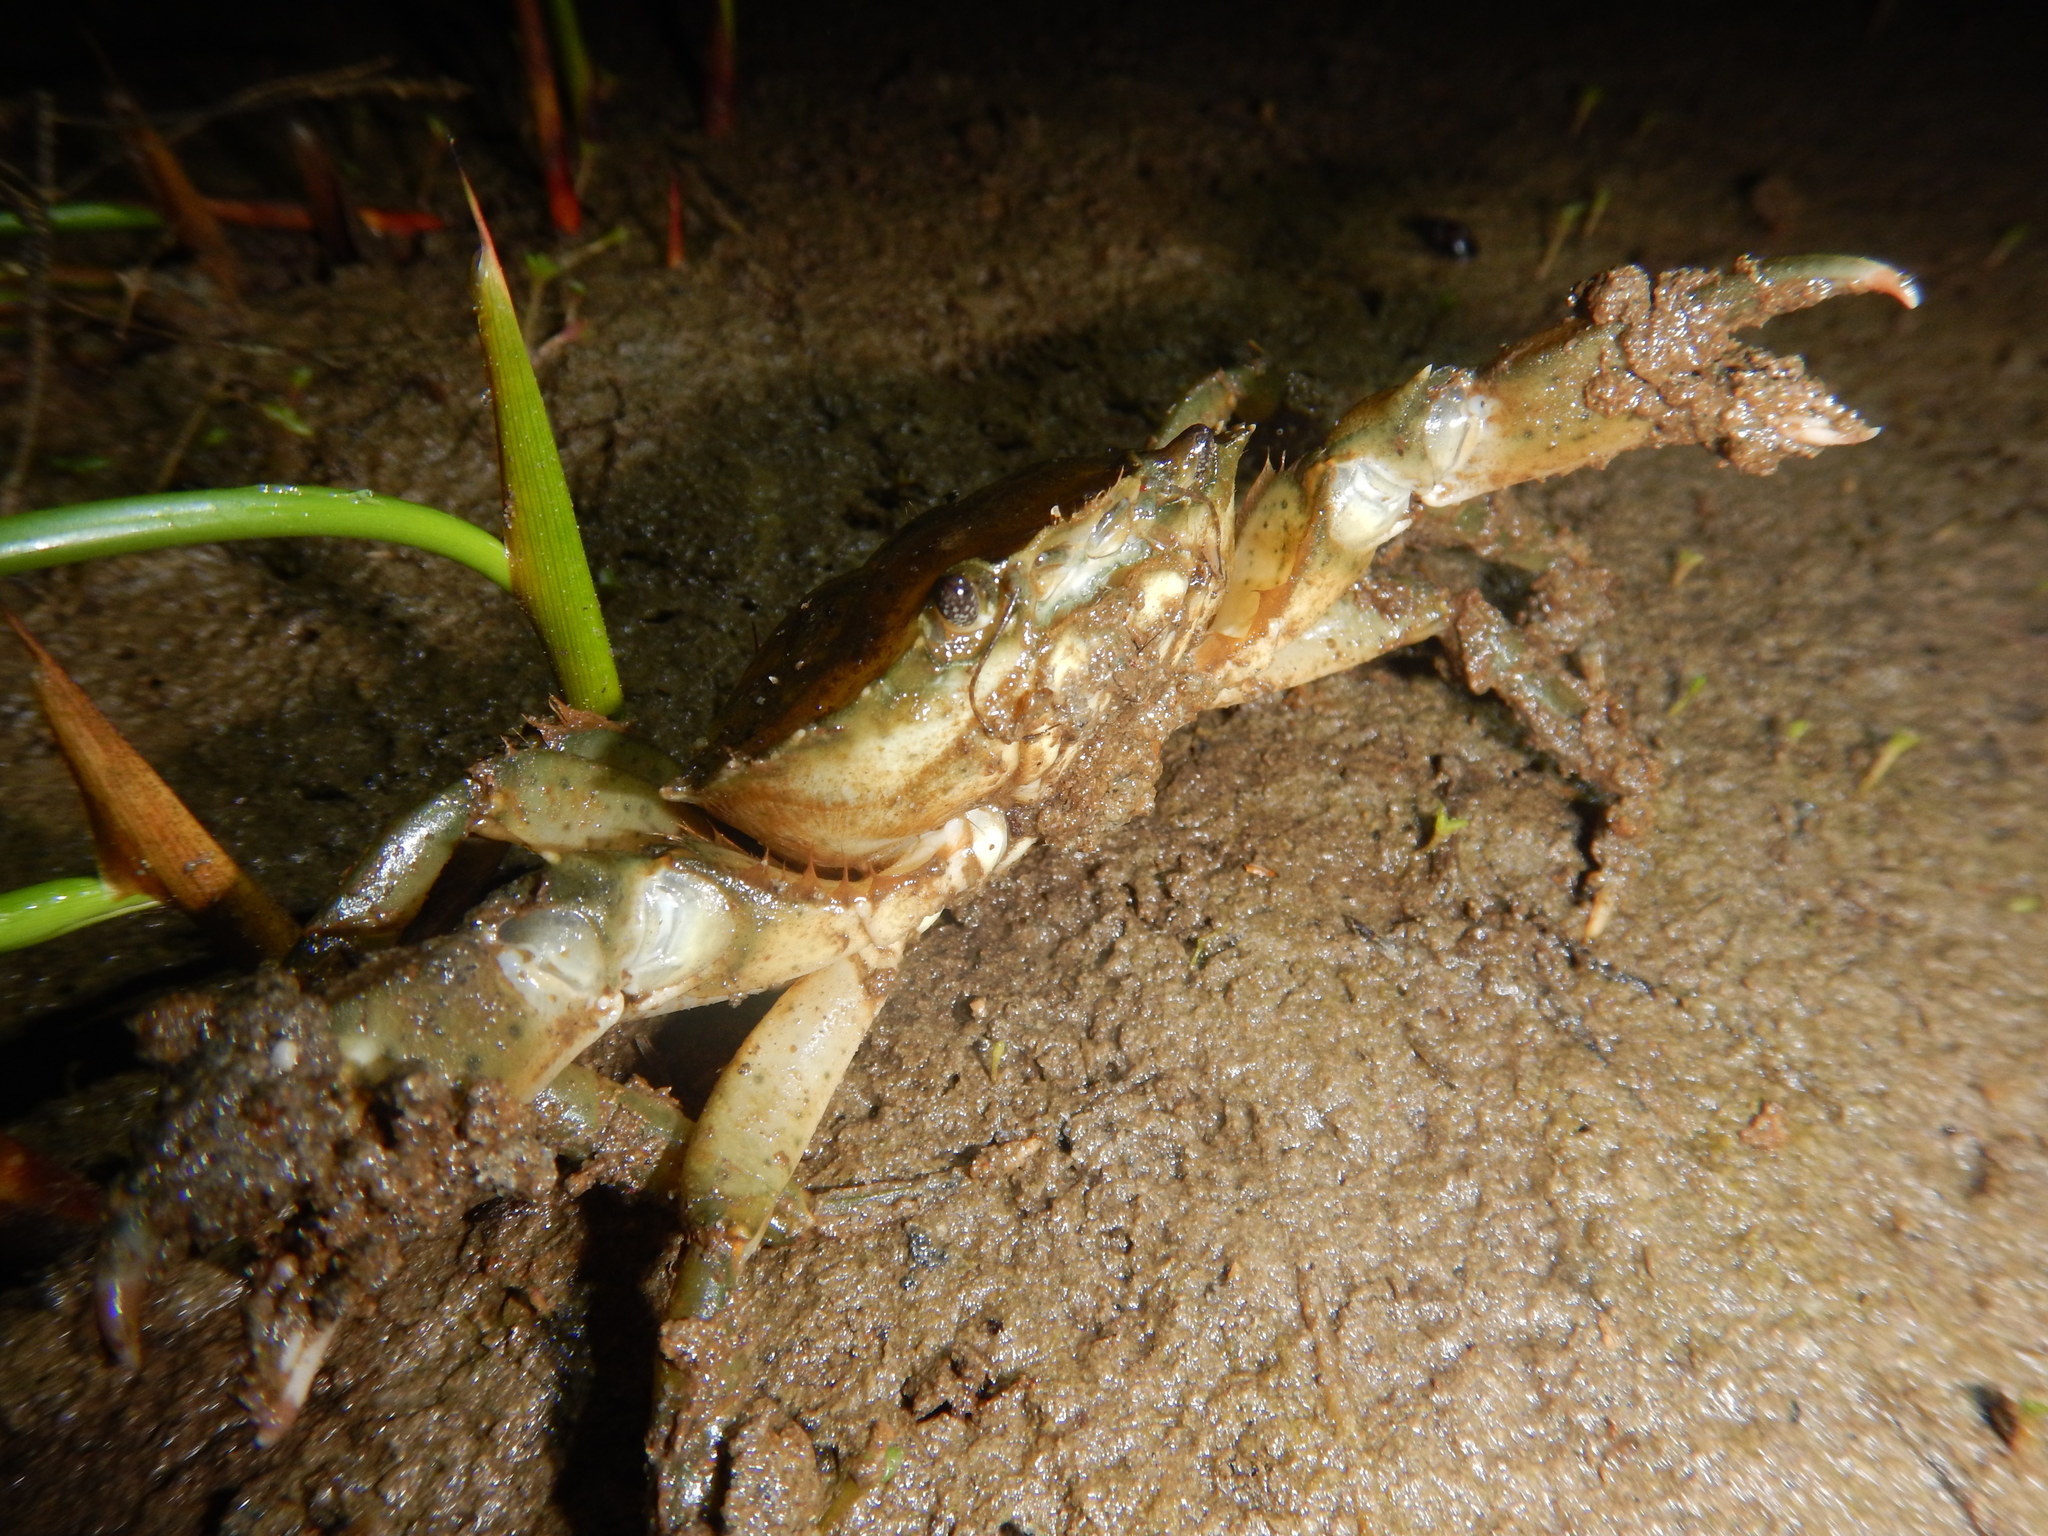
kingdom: Animalia
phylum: Arthropoda
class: Malacostraca
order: Decapoda
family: Carcinidae
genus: Carcinus
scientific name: Carcinus aestuarii
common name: Mediterranean green crab
